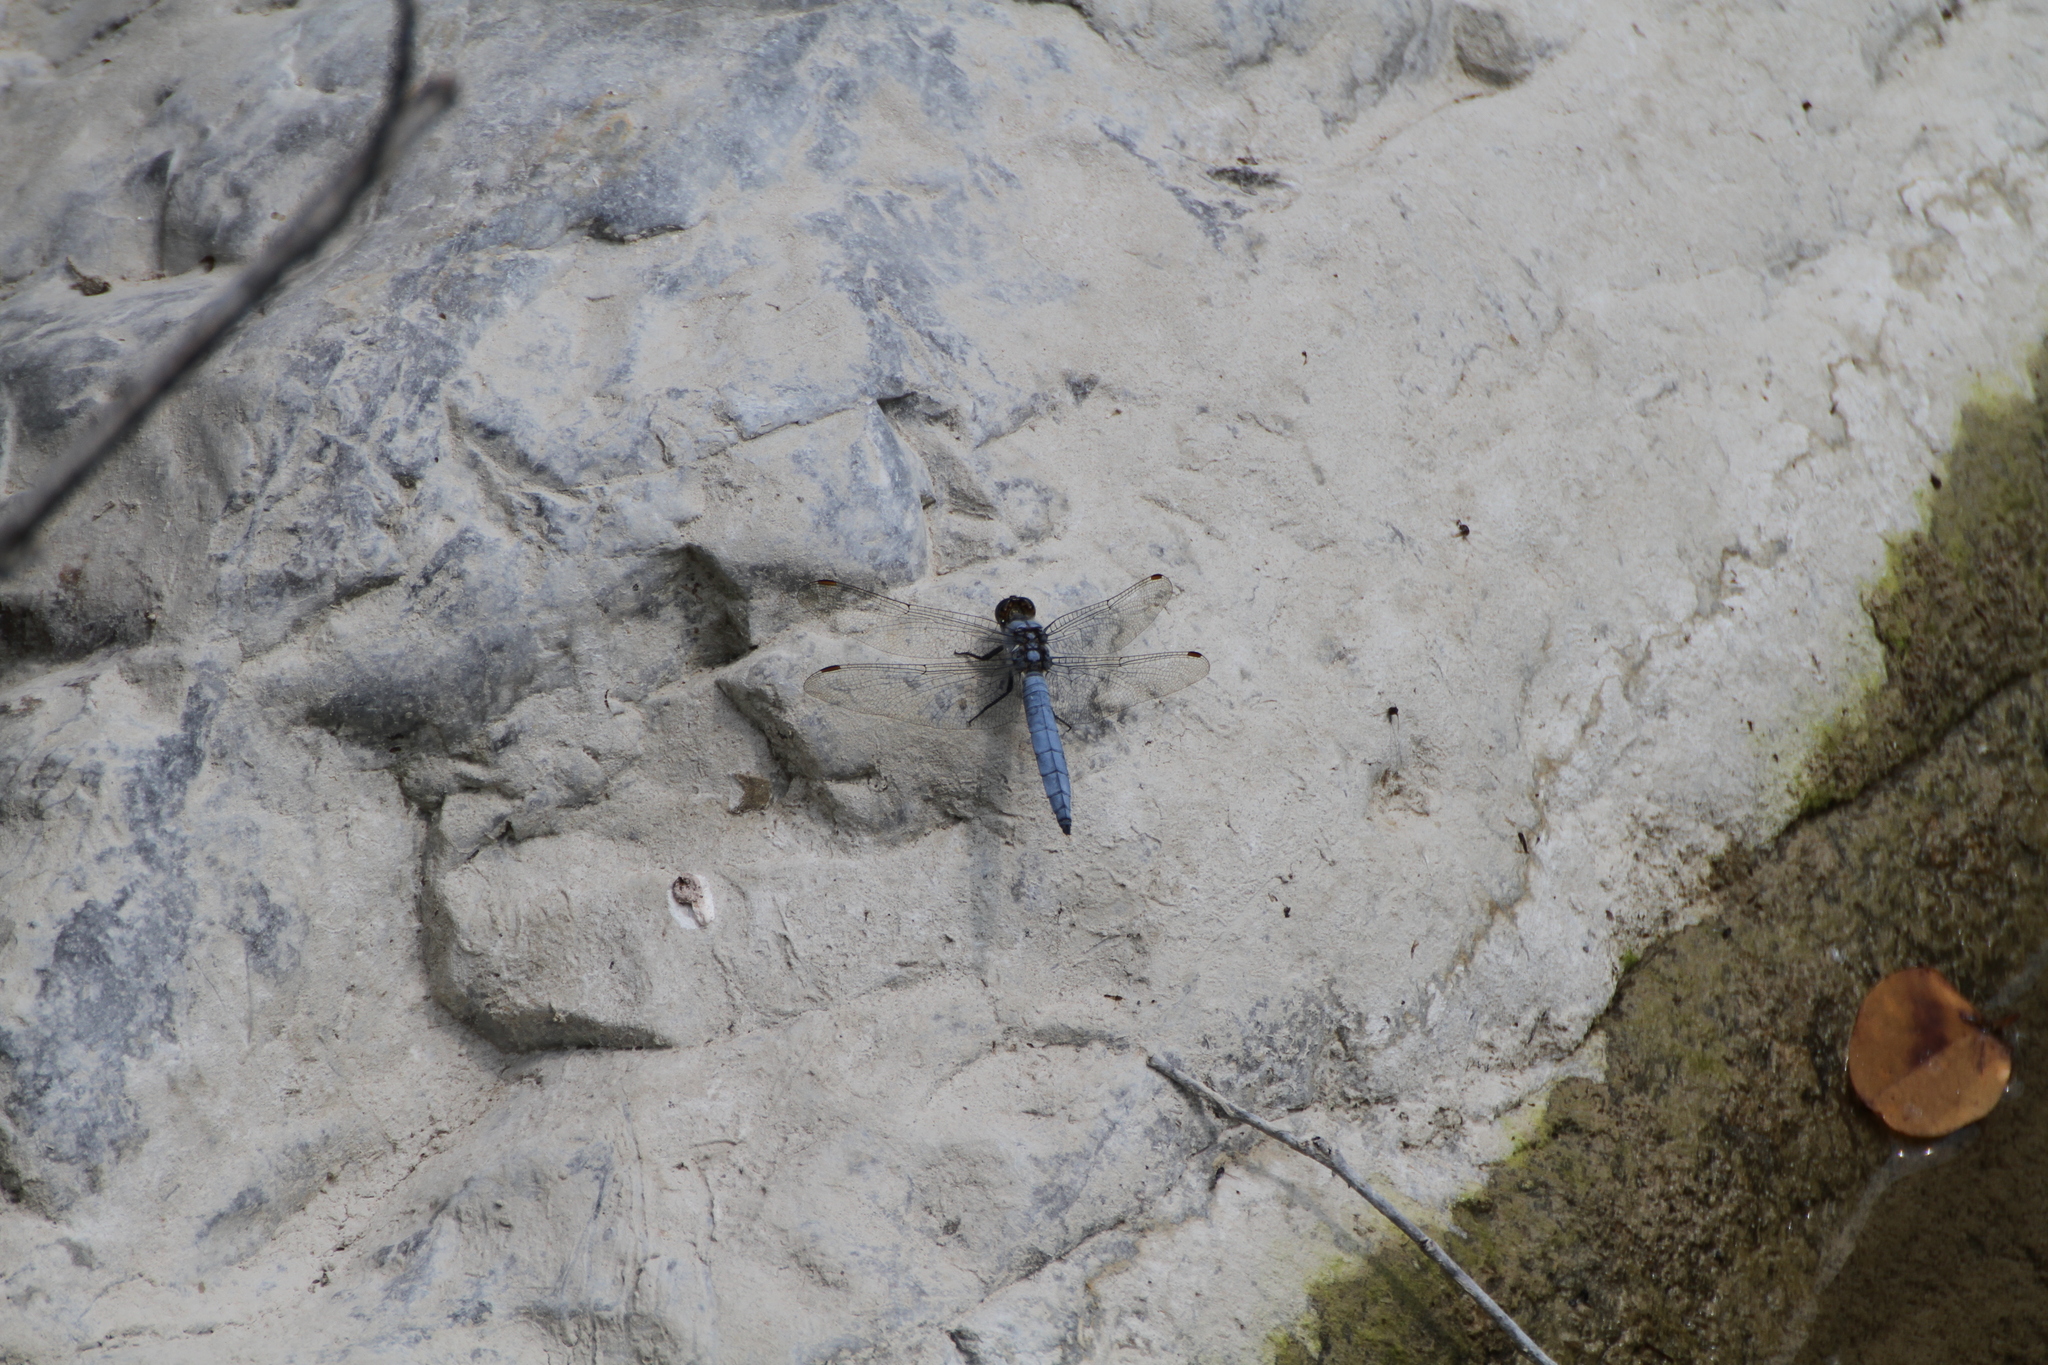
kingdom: Animalia
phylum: Arthropoda
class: Insecta
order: Odonata
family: Libellulidae
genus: Orthetrum
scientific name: Orthetrum brunneum
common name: Southern skimmer
